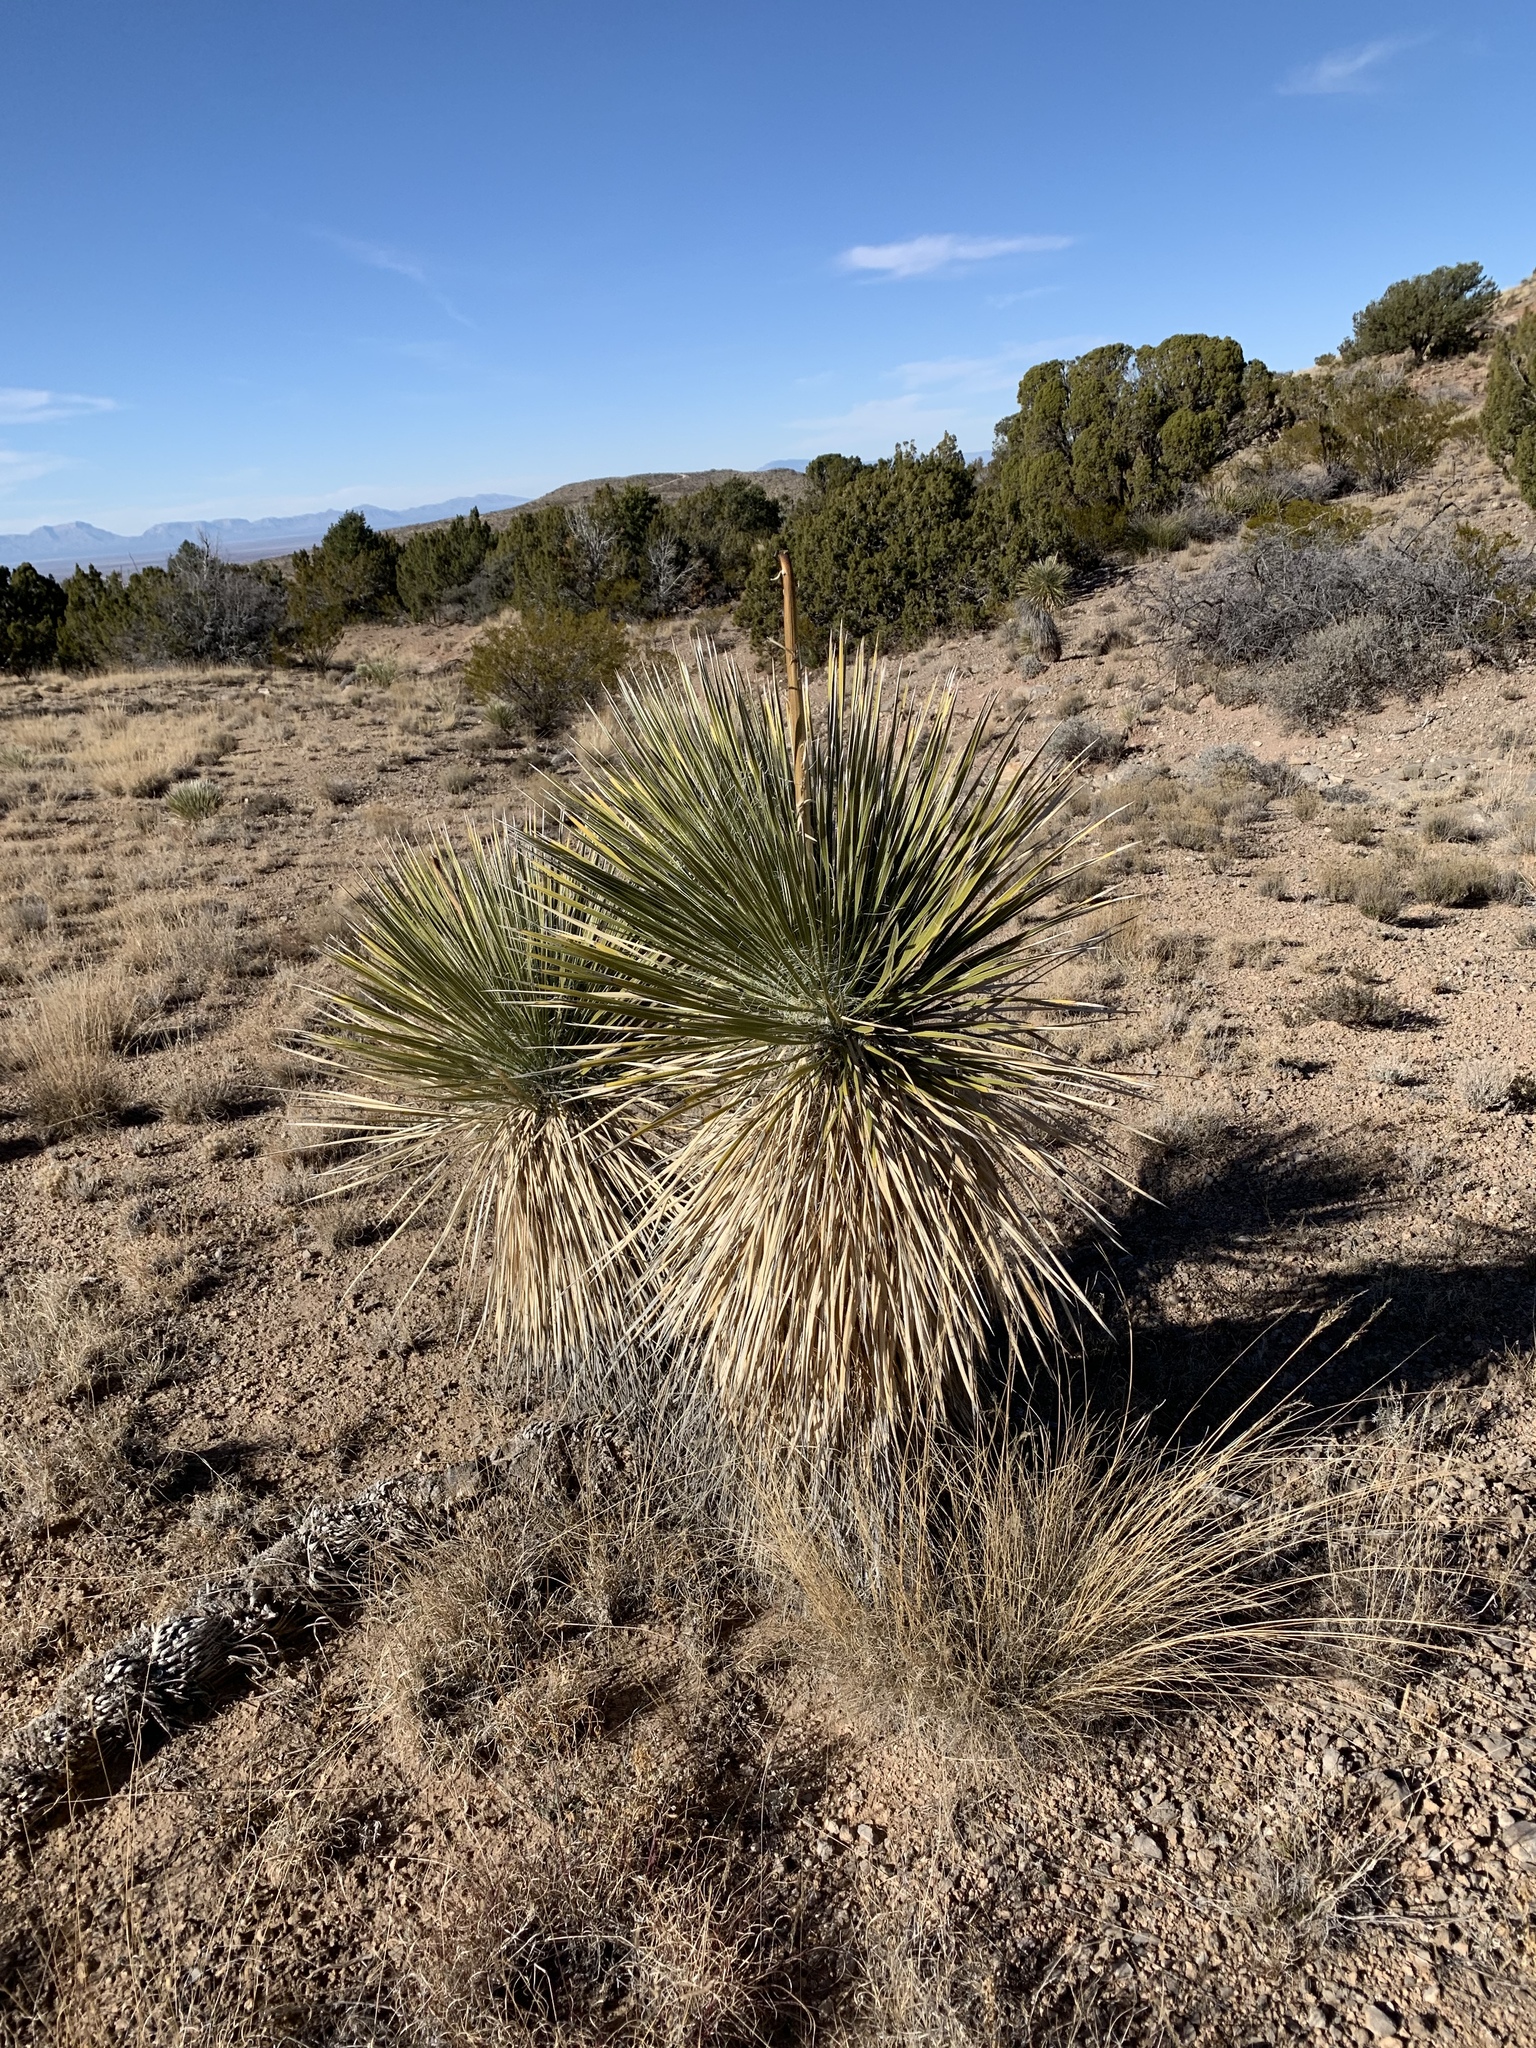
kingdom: Plantae
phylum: Tracheophyta
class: Liliopsida
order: Asparagales
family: Asparagaceae
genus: Yucca
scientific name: Yucca elata
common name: Palmella
